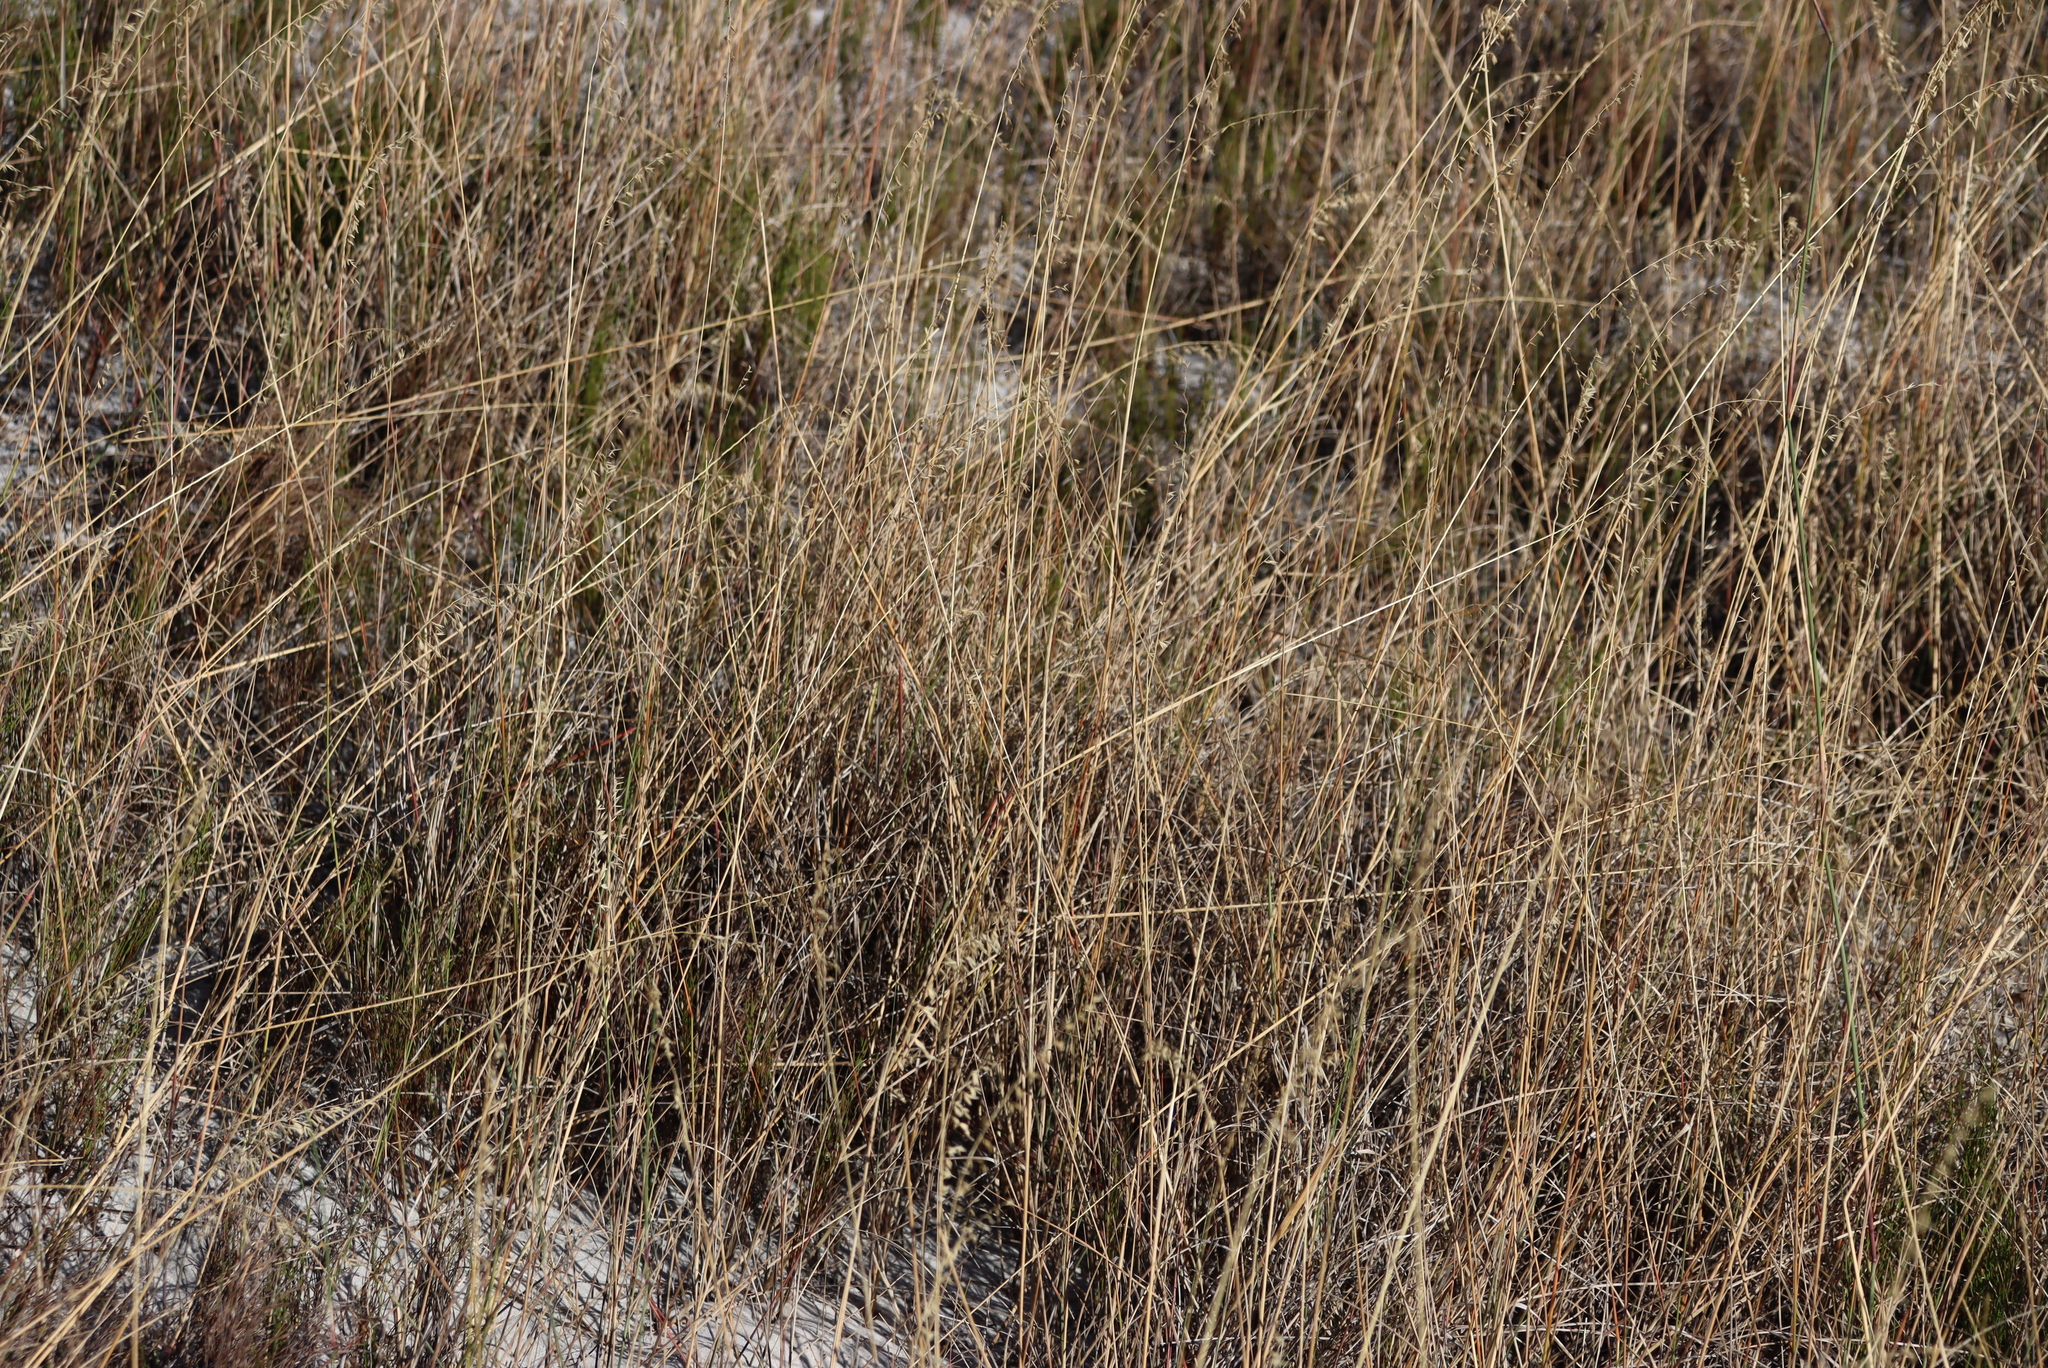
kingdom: Plantae
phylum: Tracheophyta
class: Liliopsida
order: Poales
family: Poaceae
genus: Ehrharta
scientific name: Ehrharta villosa
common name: Pyp grass
